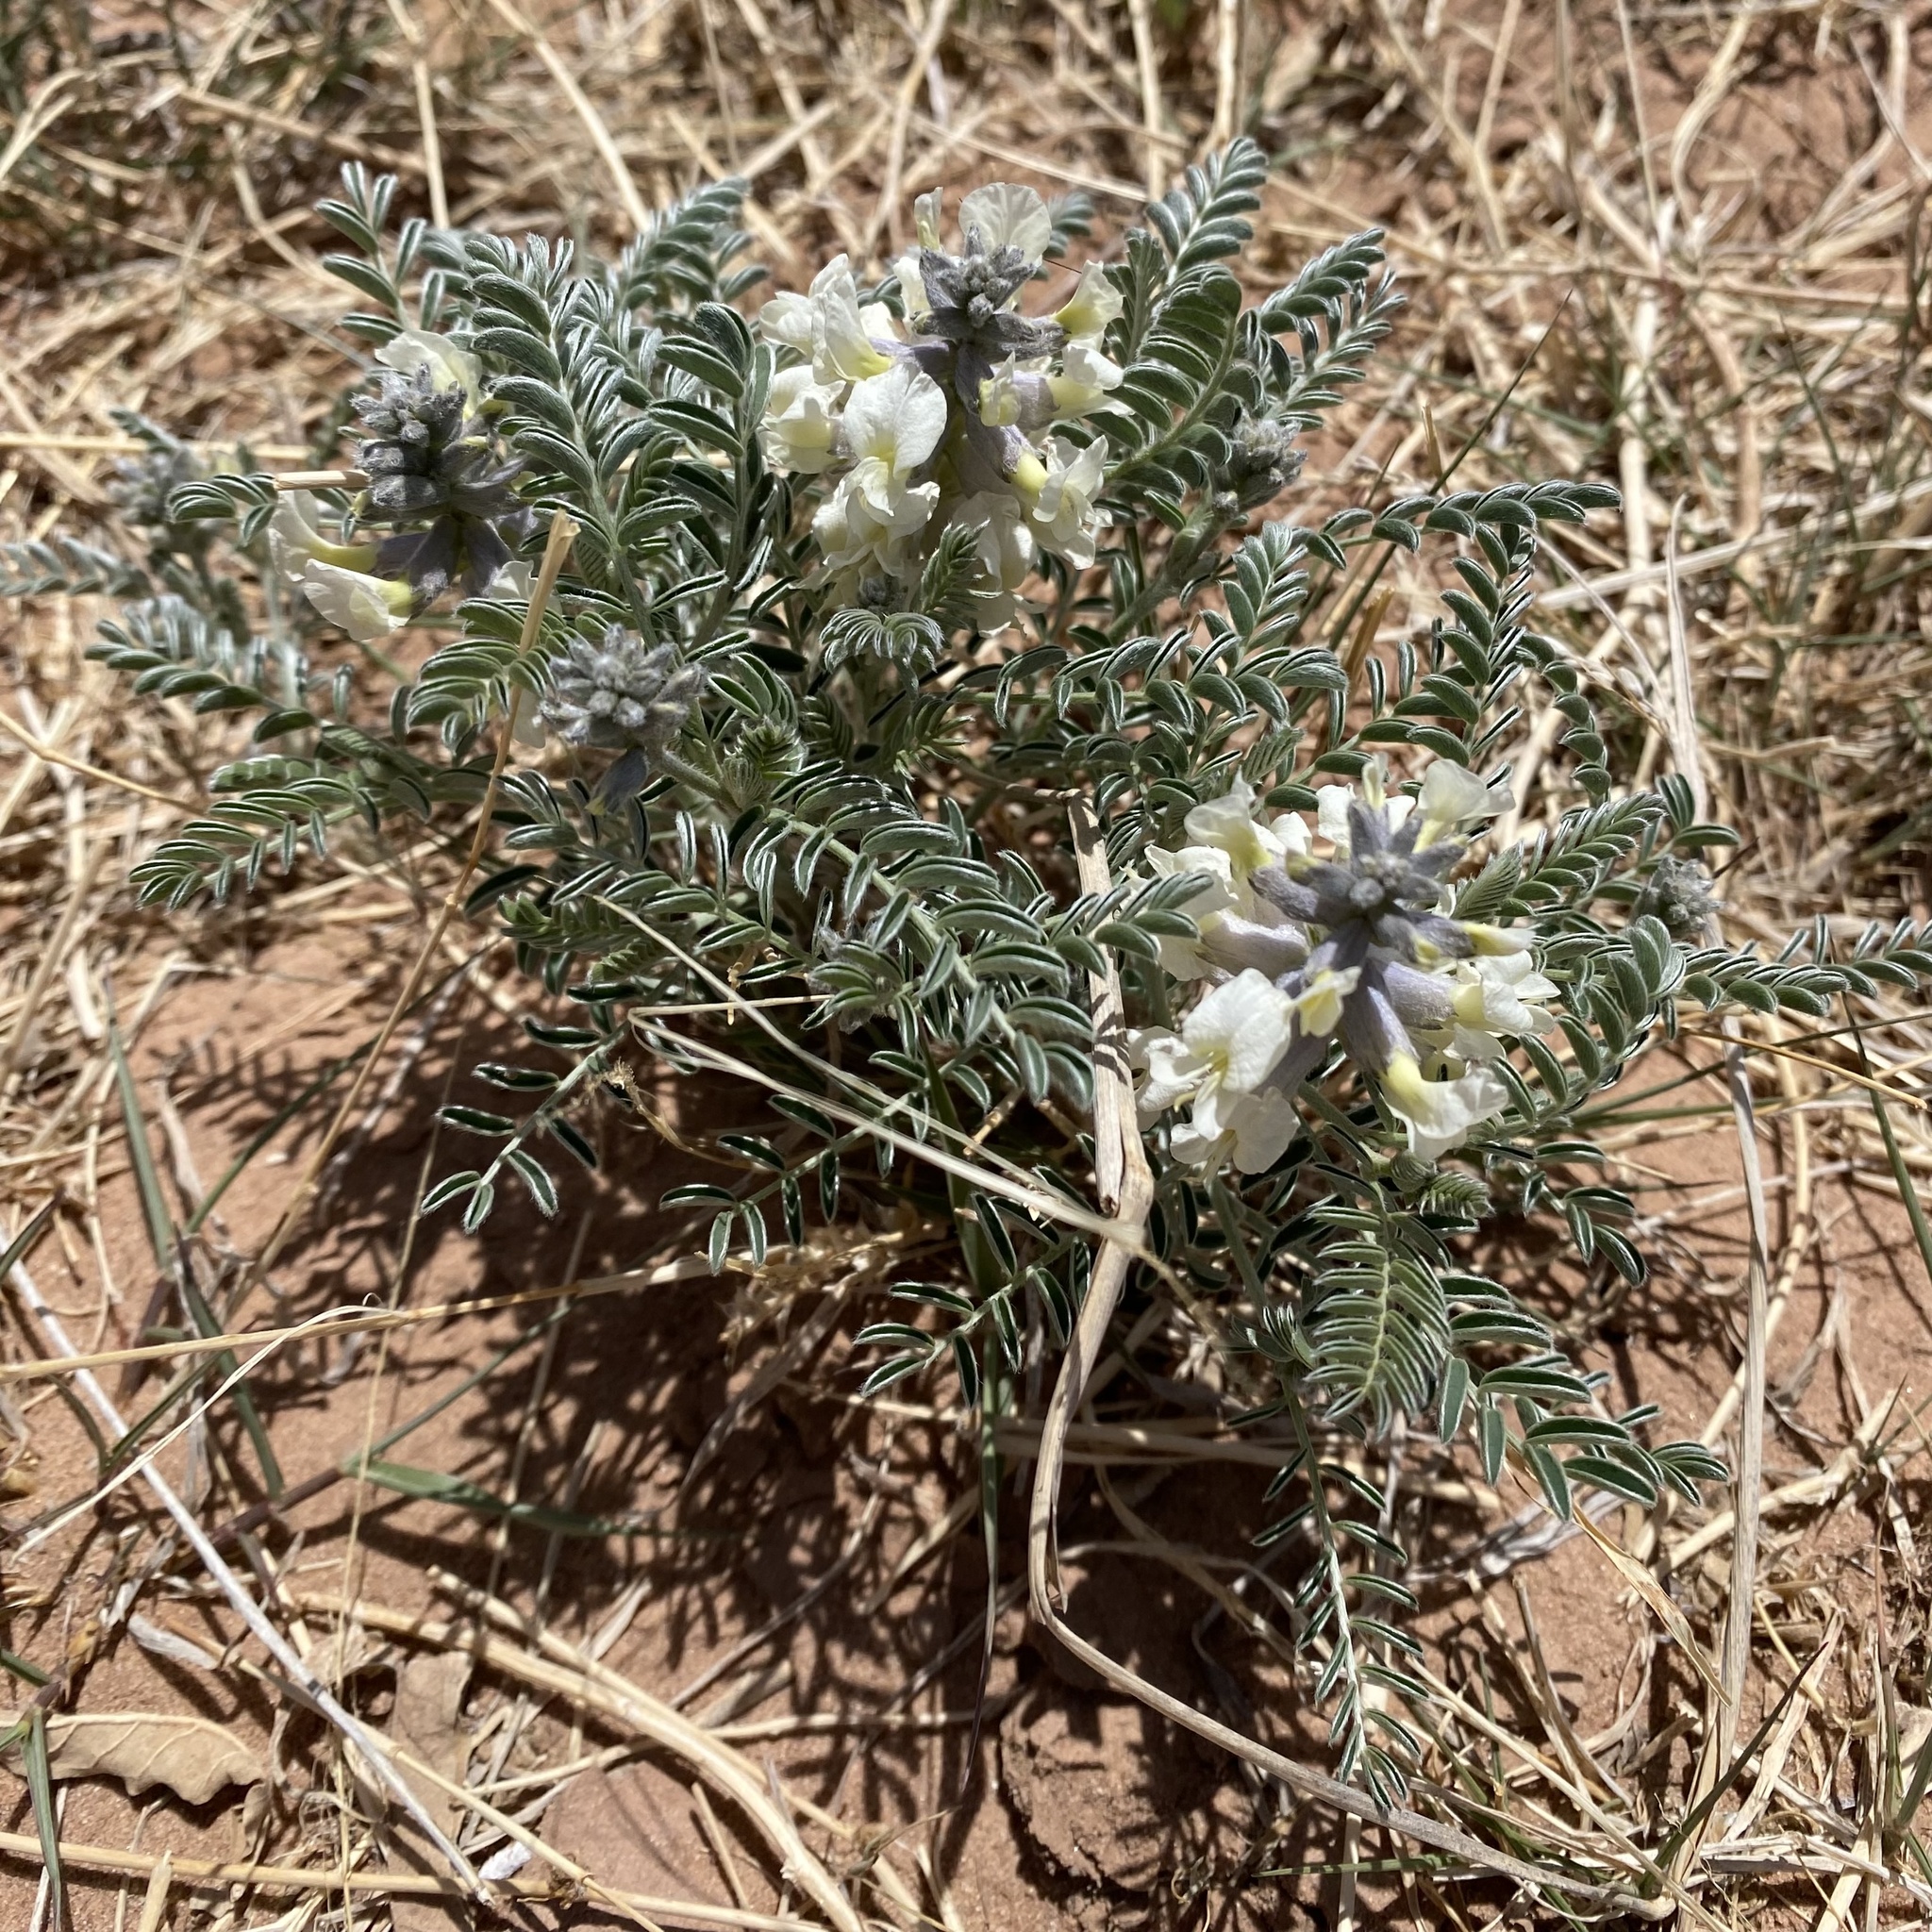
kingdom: Plantae
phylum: Tracheophyta
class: Magnoliopsida
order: Fabales
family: Fabaceae
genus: Sophora
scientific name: Sophora nuttalliana
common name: Silky sophora
